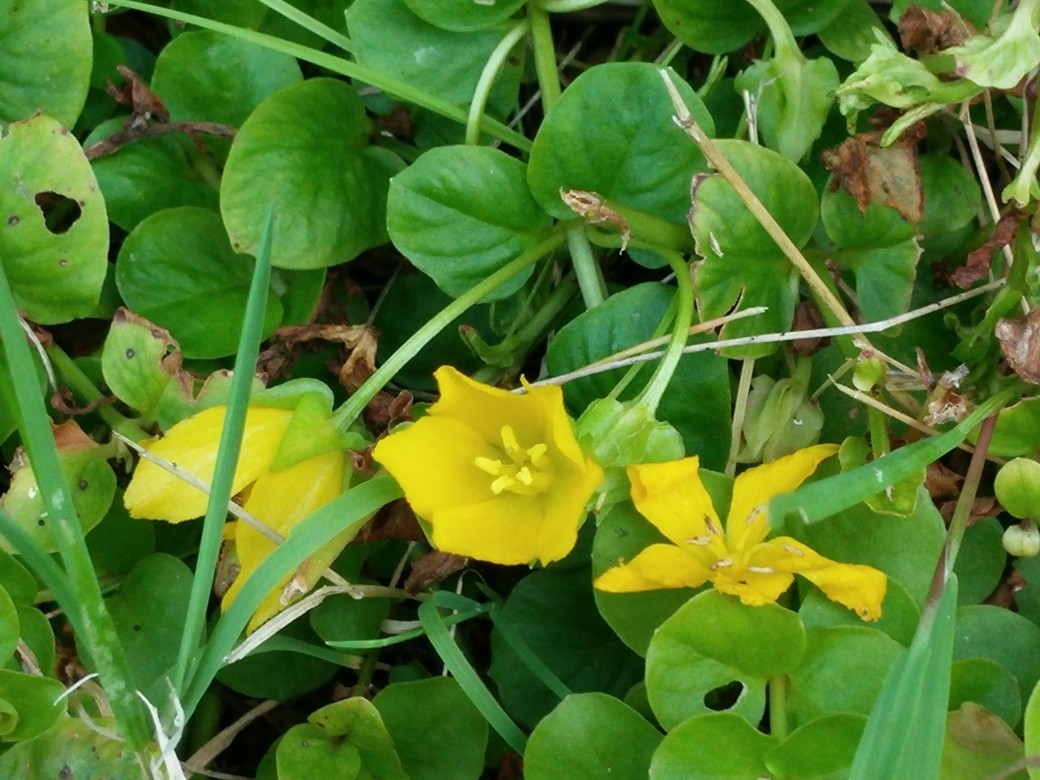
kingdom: Plantae
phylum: Tracheophyta
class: Magnoliopsida
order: Ericales
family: Primulaceae
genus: Lysimachia
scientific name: Lysimachia nummularia
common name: Moneywort
